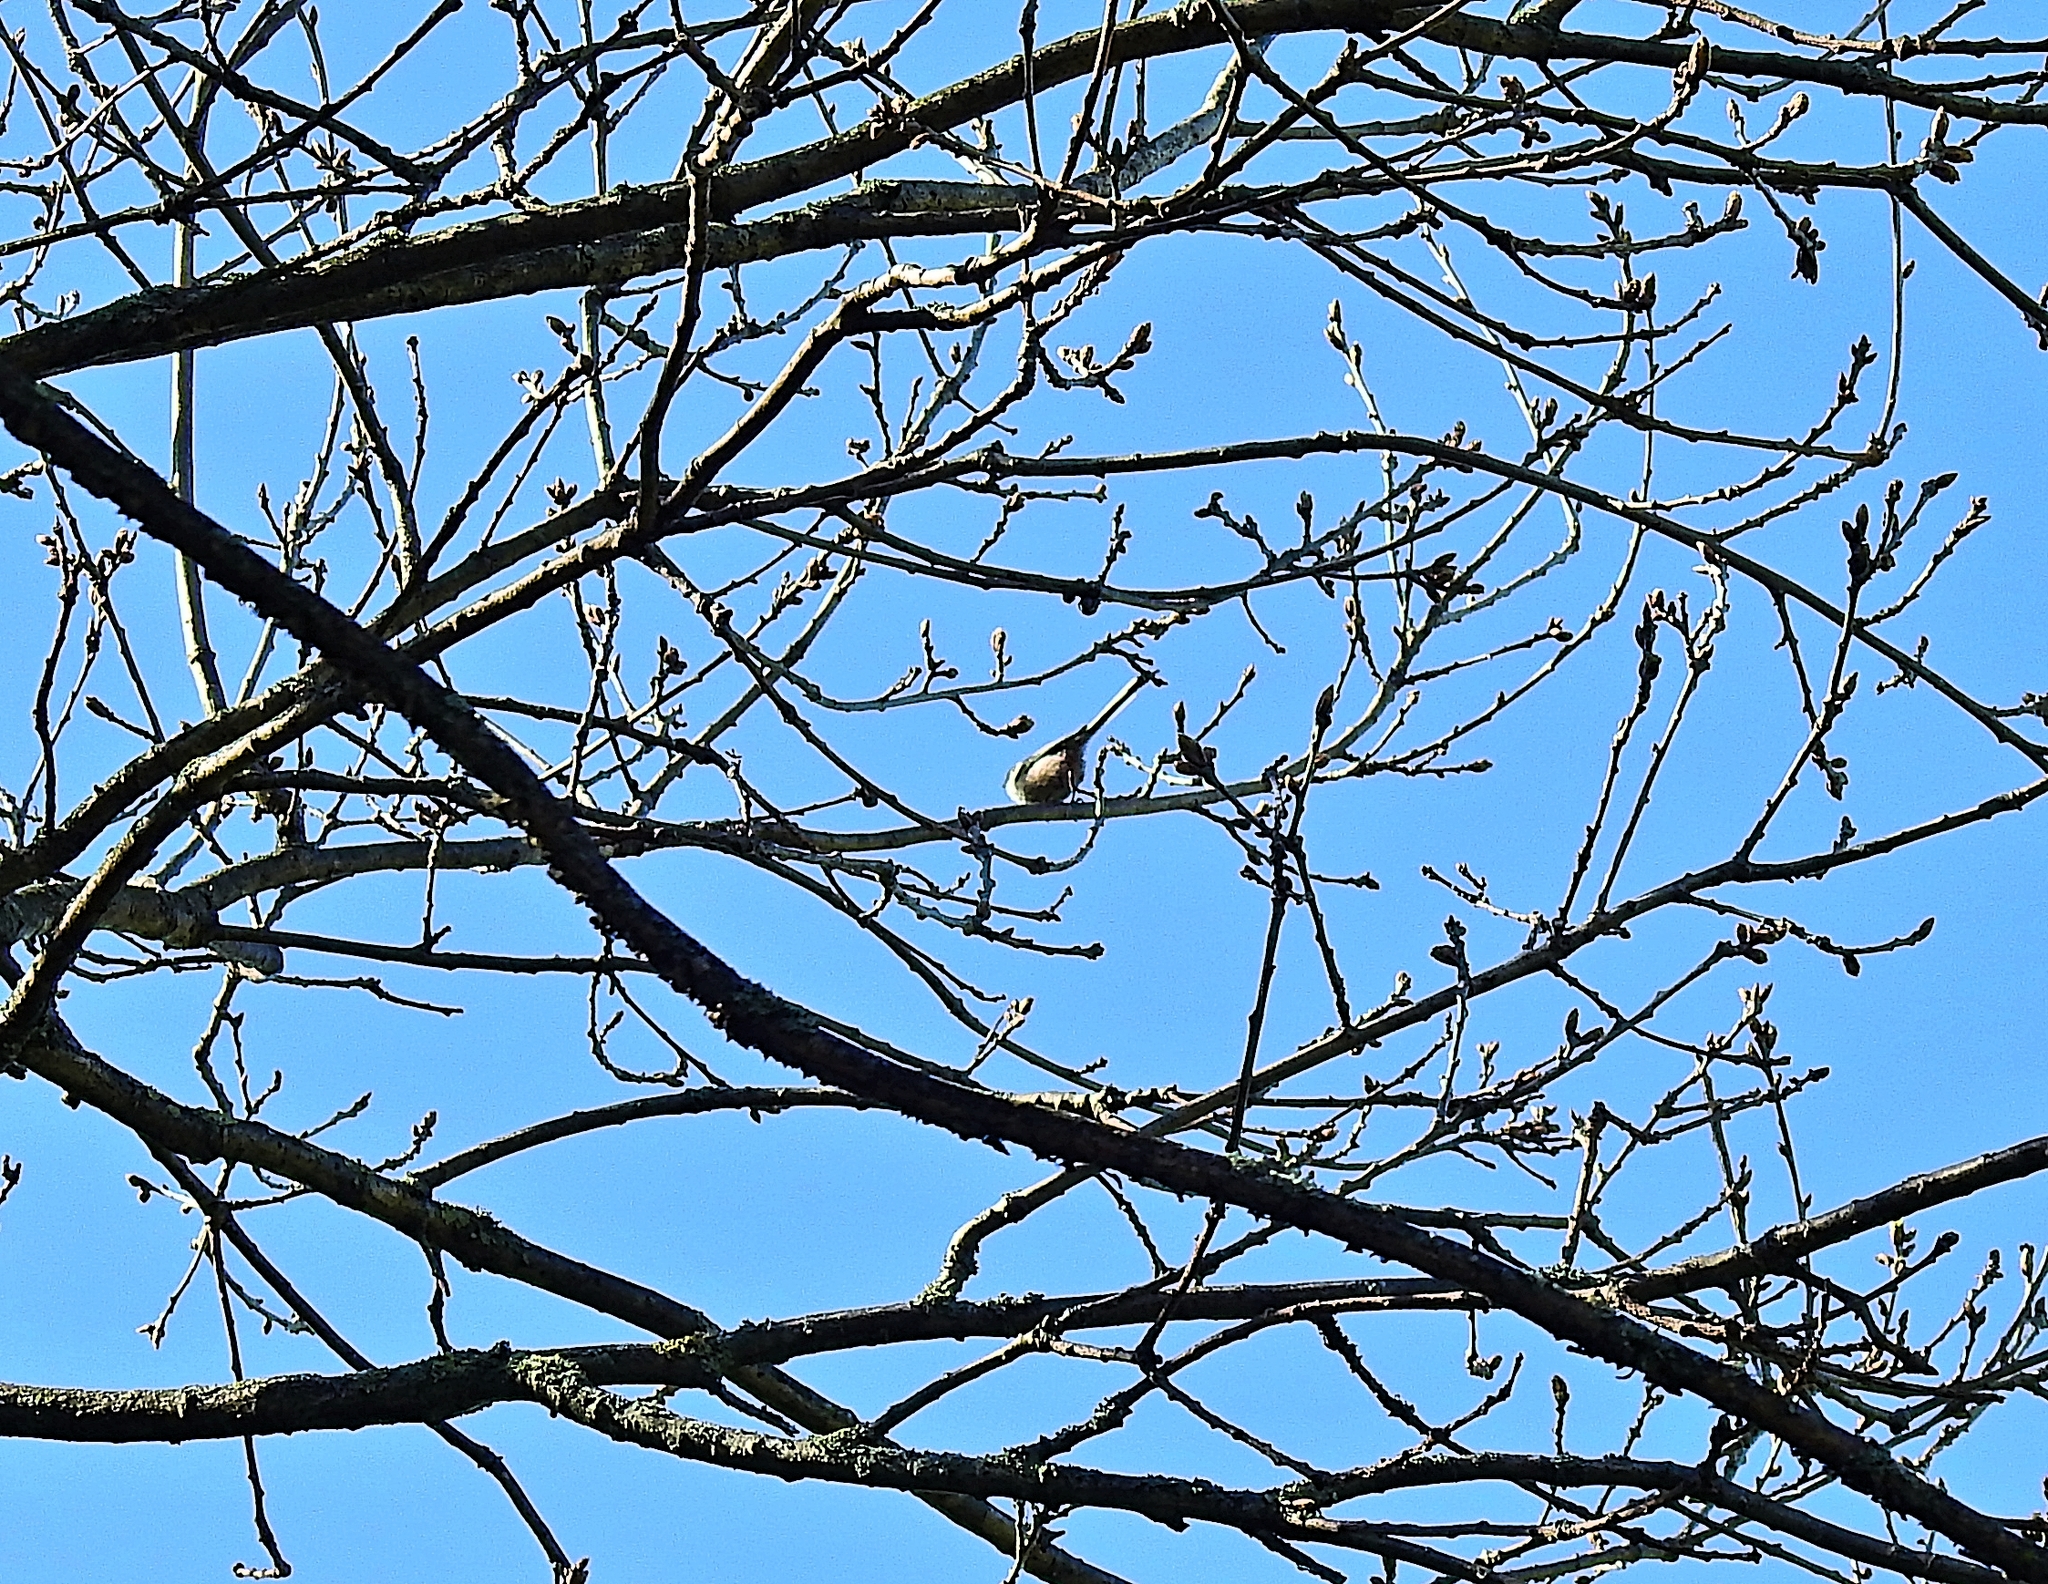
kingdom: Animalia
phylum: Chordata
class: Aves
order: Passeriformes
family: Aegithalidae
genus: Aegithalos
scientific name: Aegithalos caudatus
